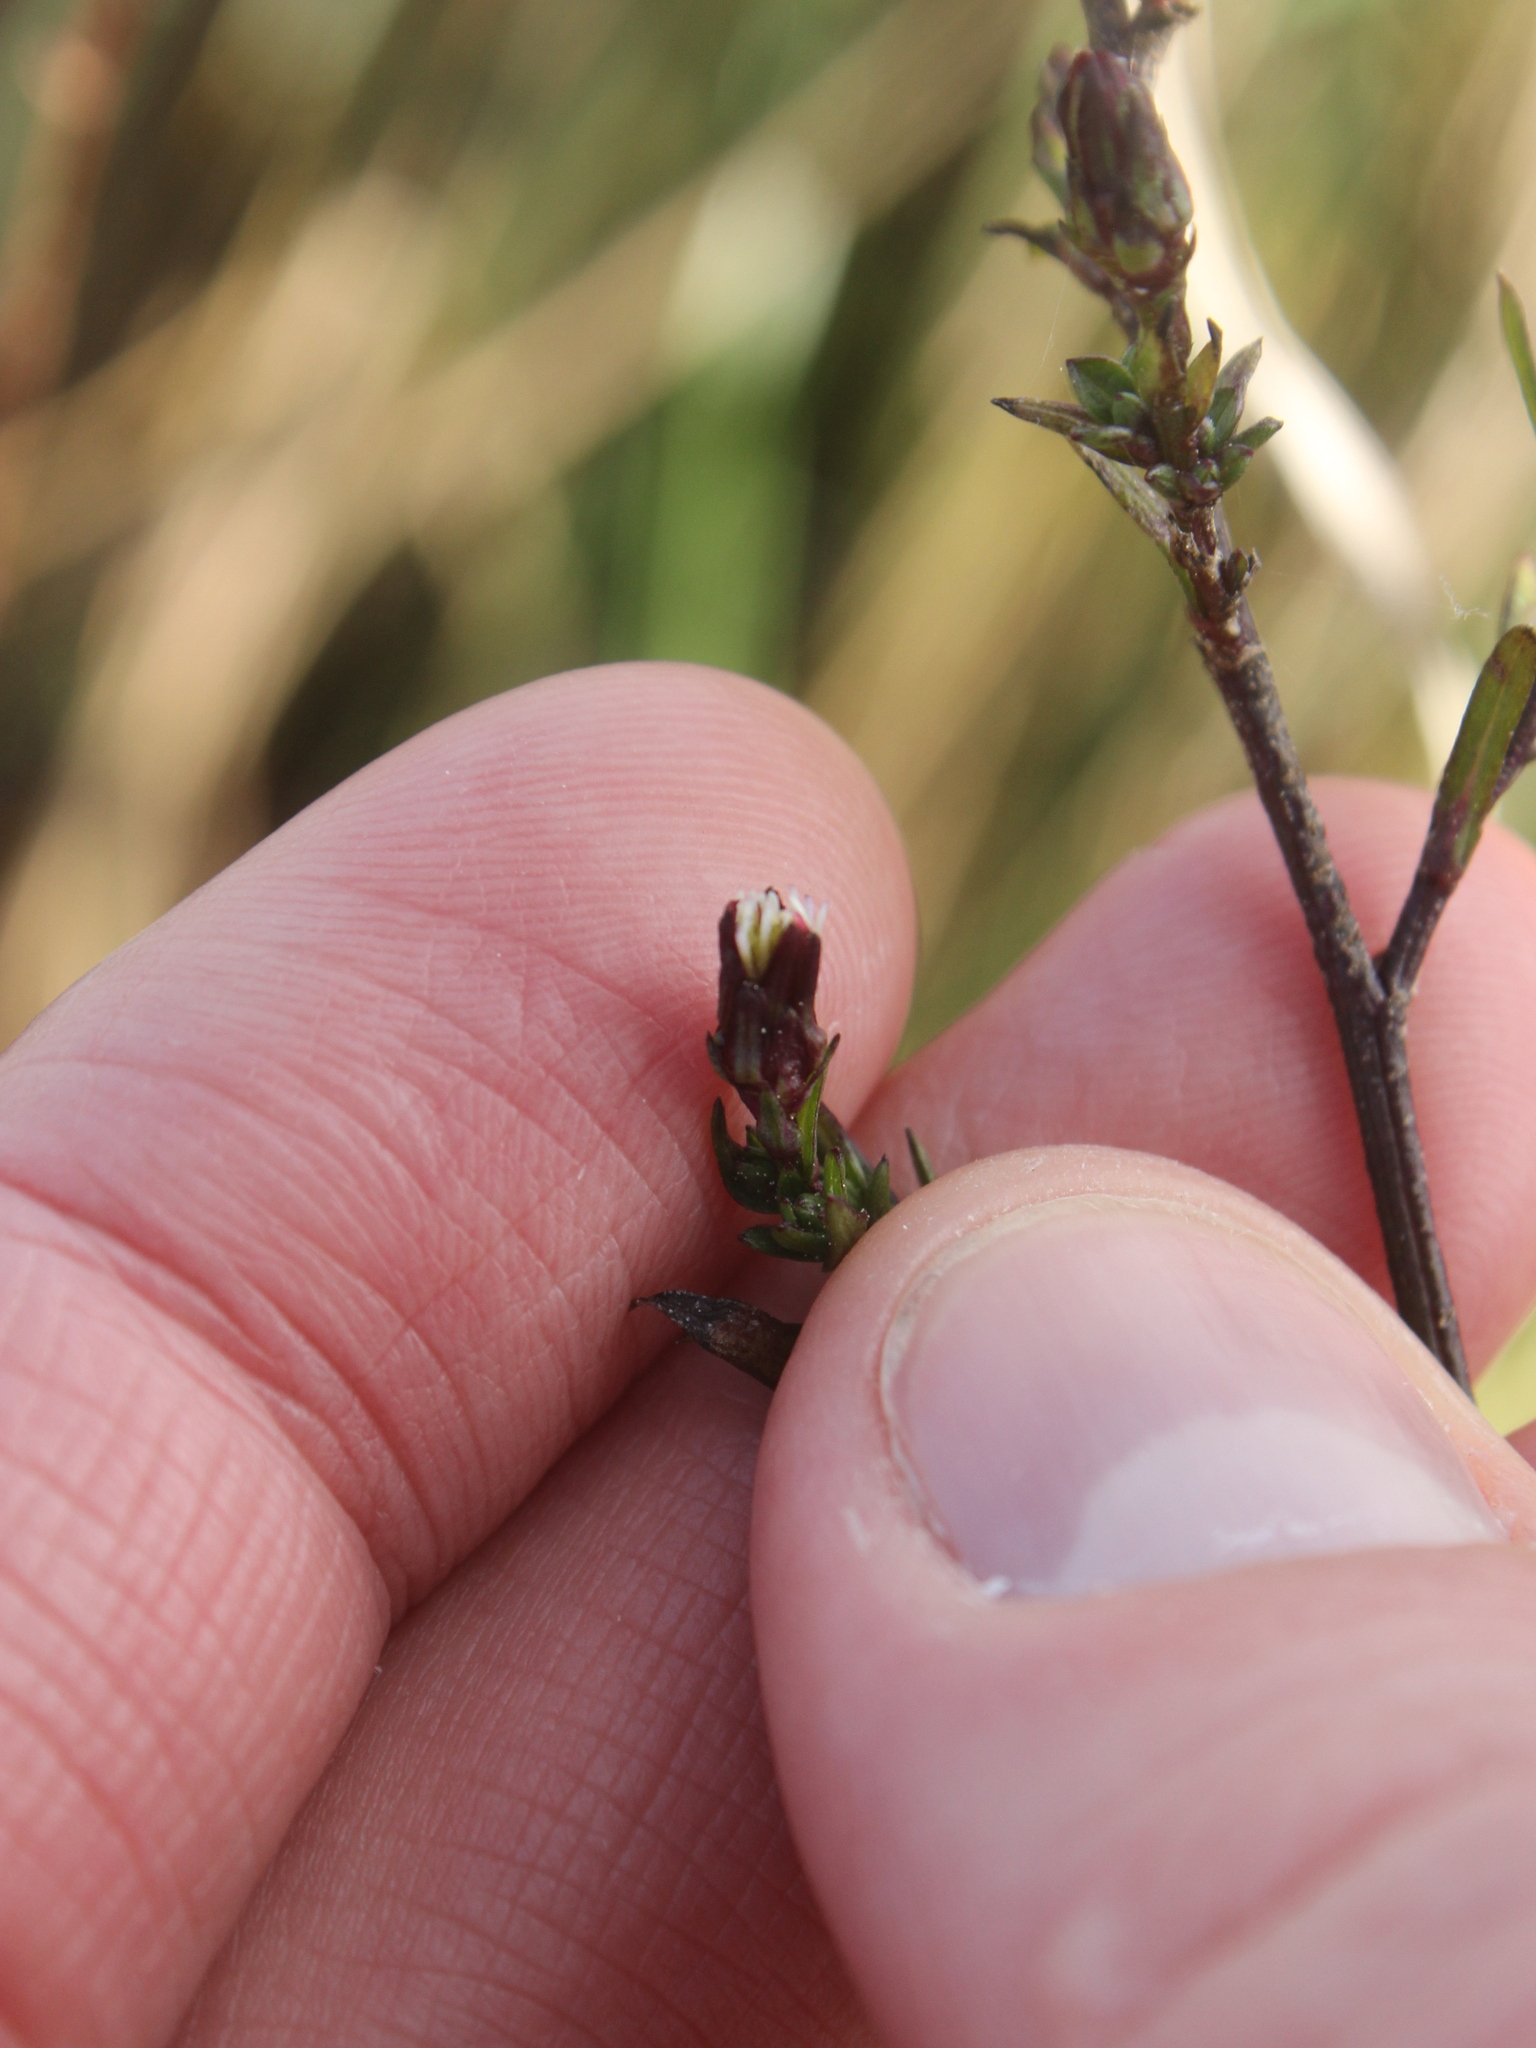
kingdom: Plantae
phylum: Tracheophyta
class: Magnoliopsida
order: Asterales
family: Asteraceae
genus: Symphyotrichum
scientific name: Symphyotrichum subulatum
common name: Annual saltmarsh aster
